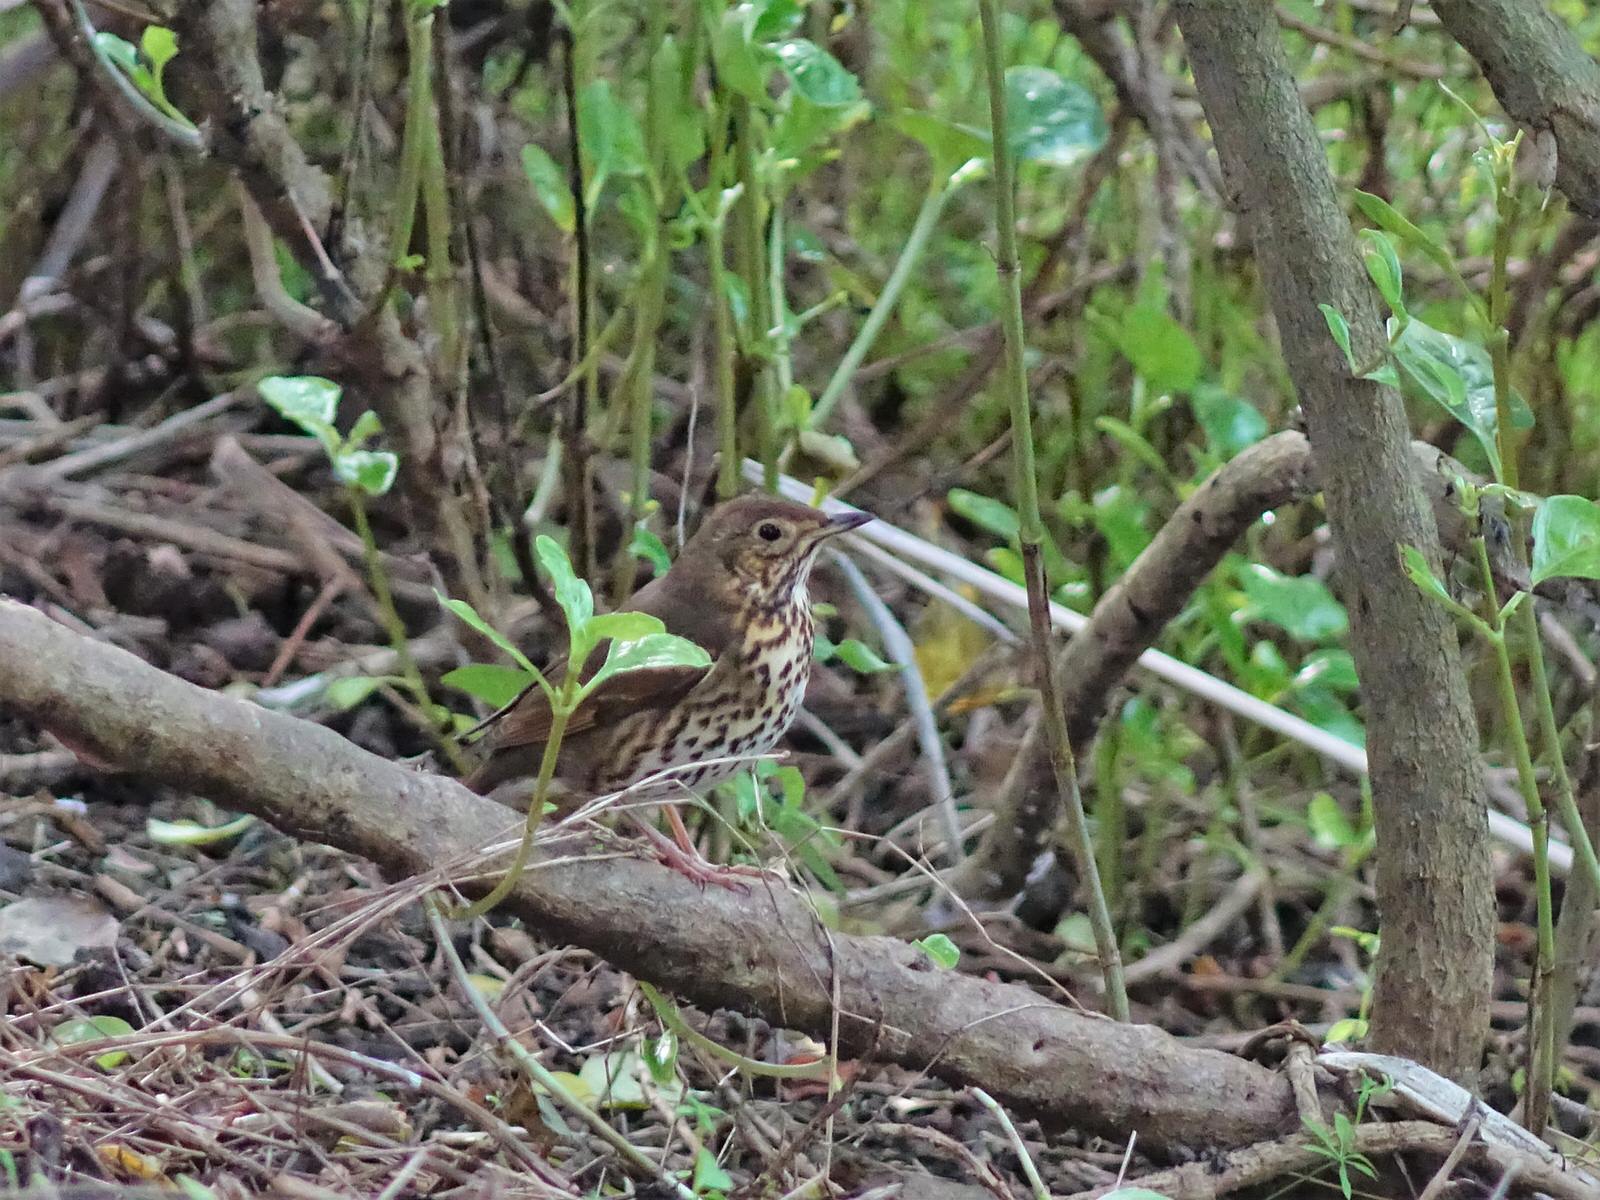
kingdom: Animalia
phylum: Chordata
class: Aves
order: Passeriformes
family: Turdidae
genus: Turdus
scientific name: Turdus philomelos
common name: Song thrush
